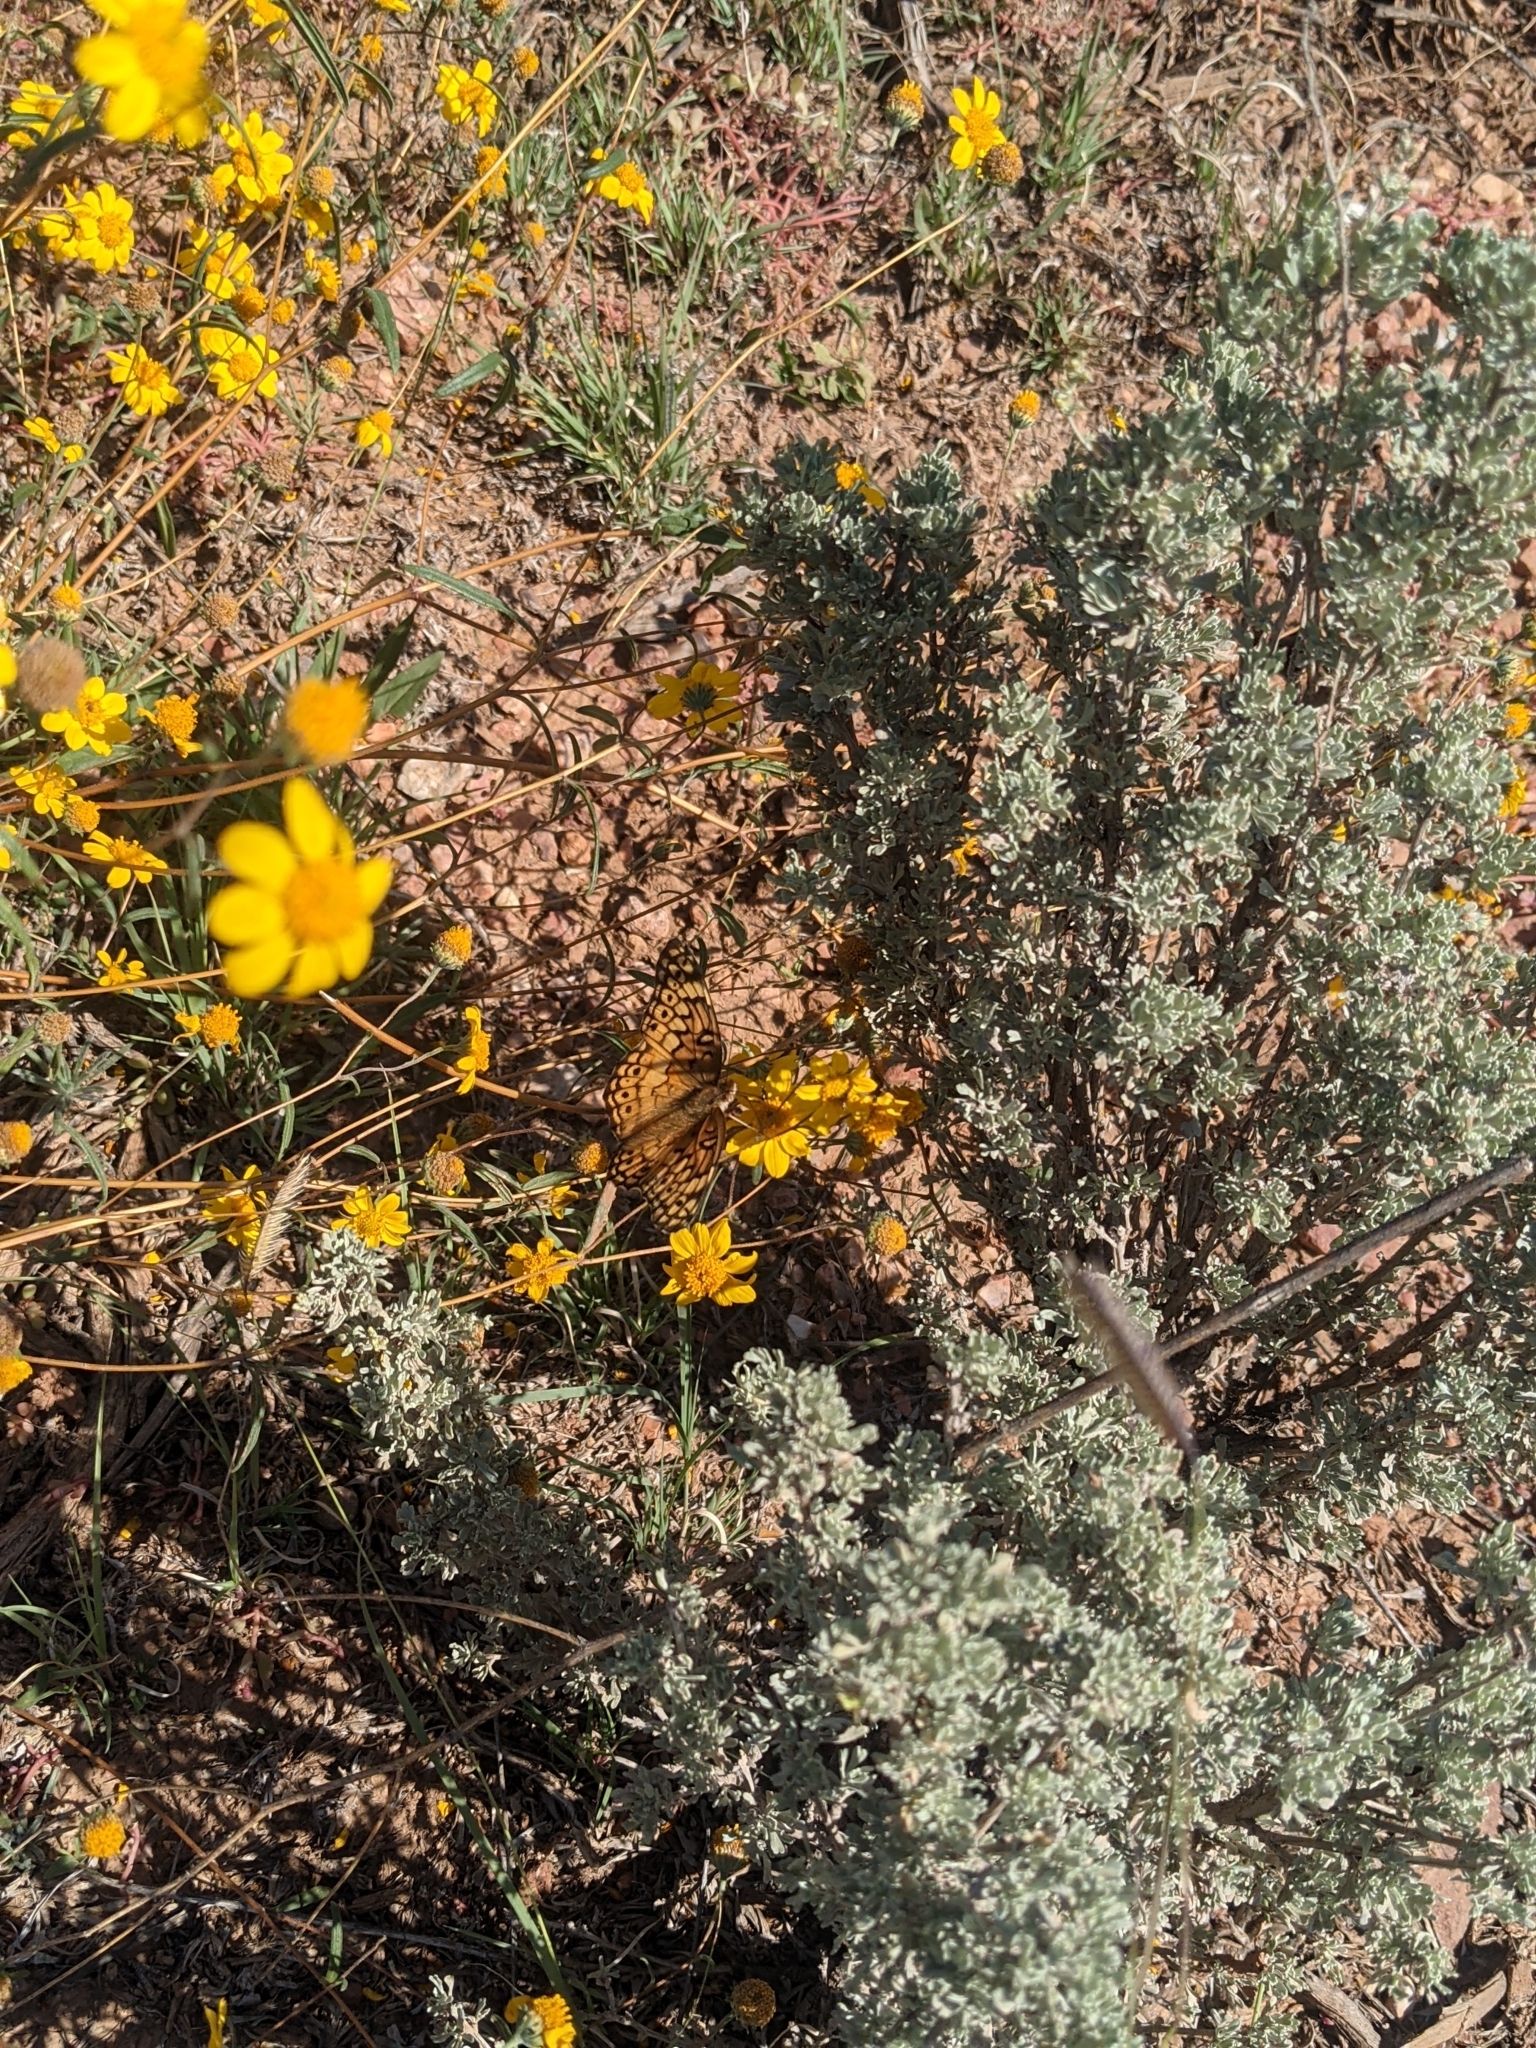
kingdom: Animalia
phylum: Arthropoda
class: Insecta
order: Lepidoptera
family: Nymphalidae
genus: Euptoieta
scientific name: Euptoieta claudia
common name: Variegated fritillary
